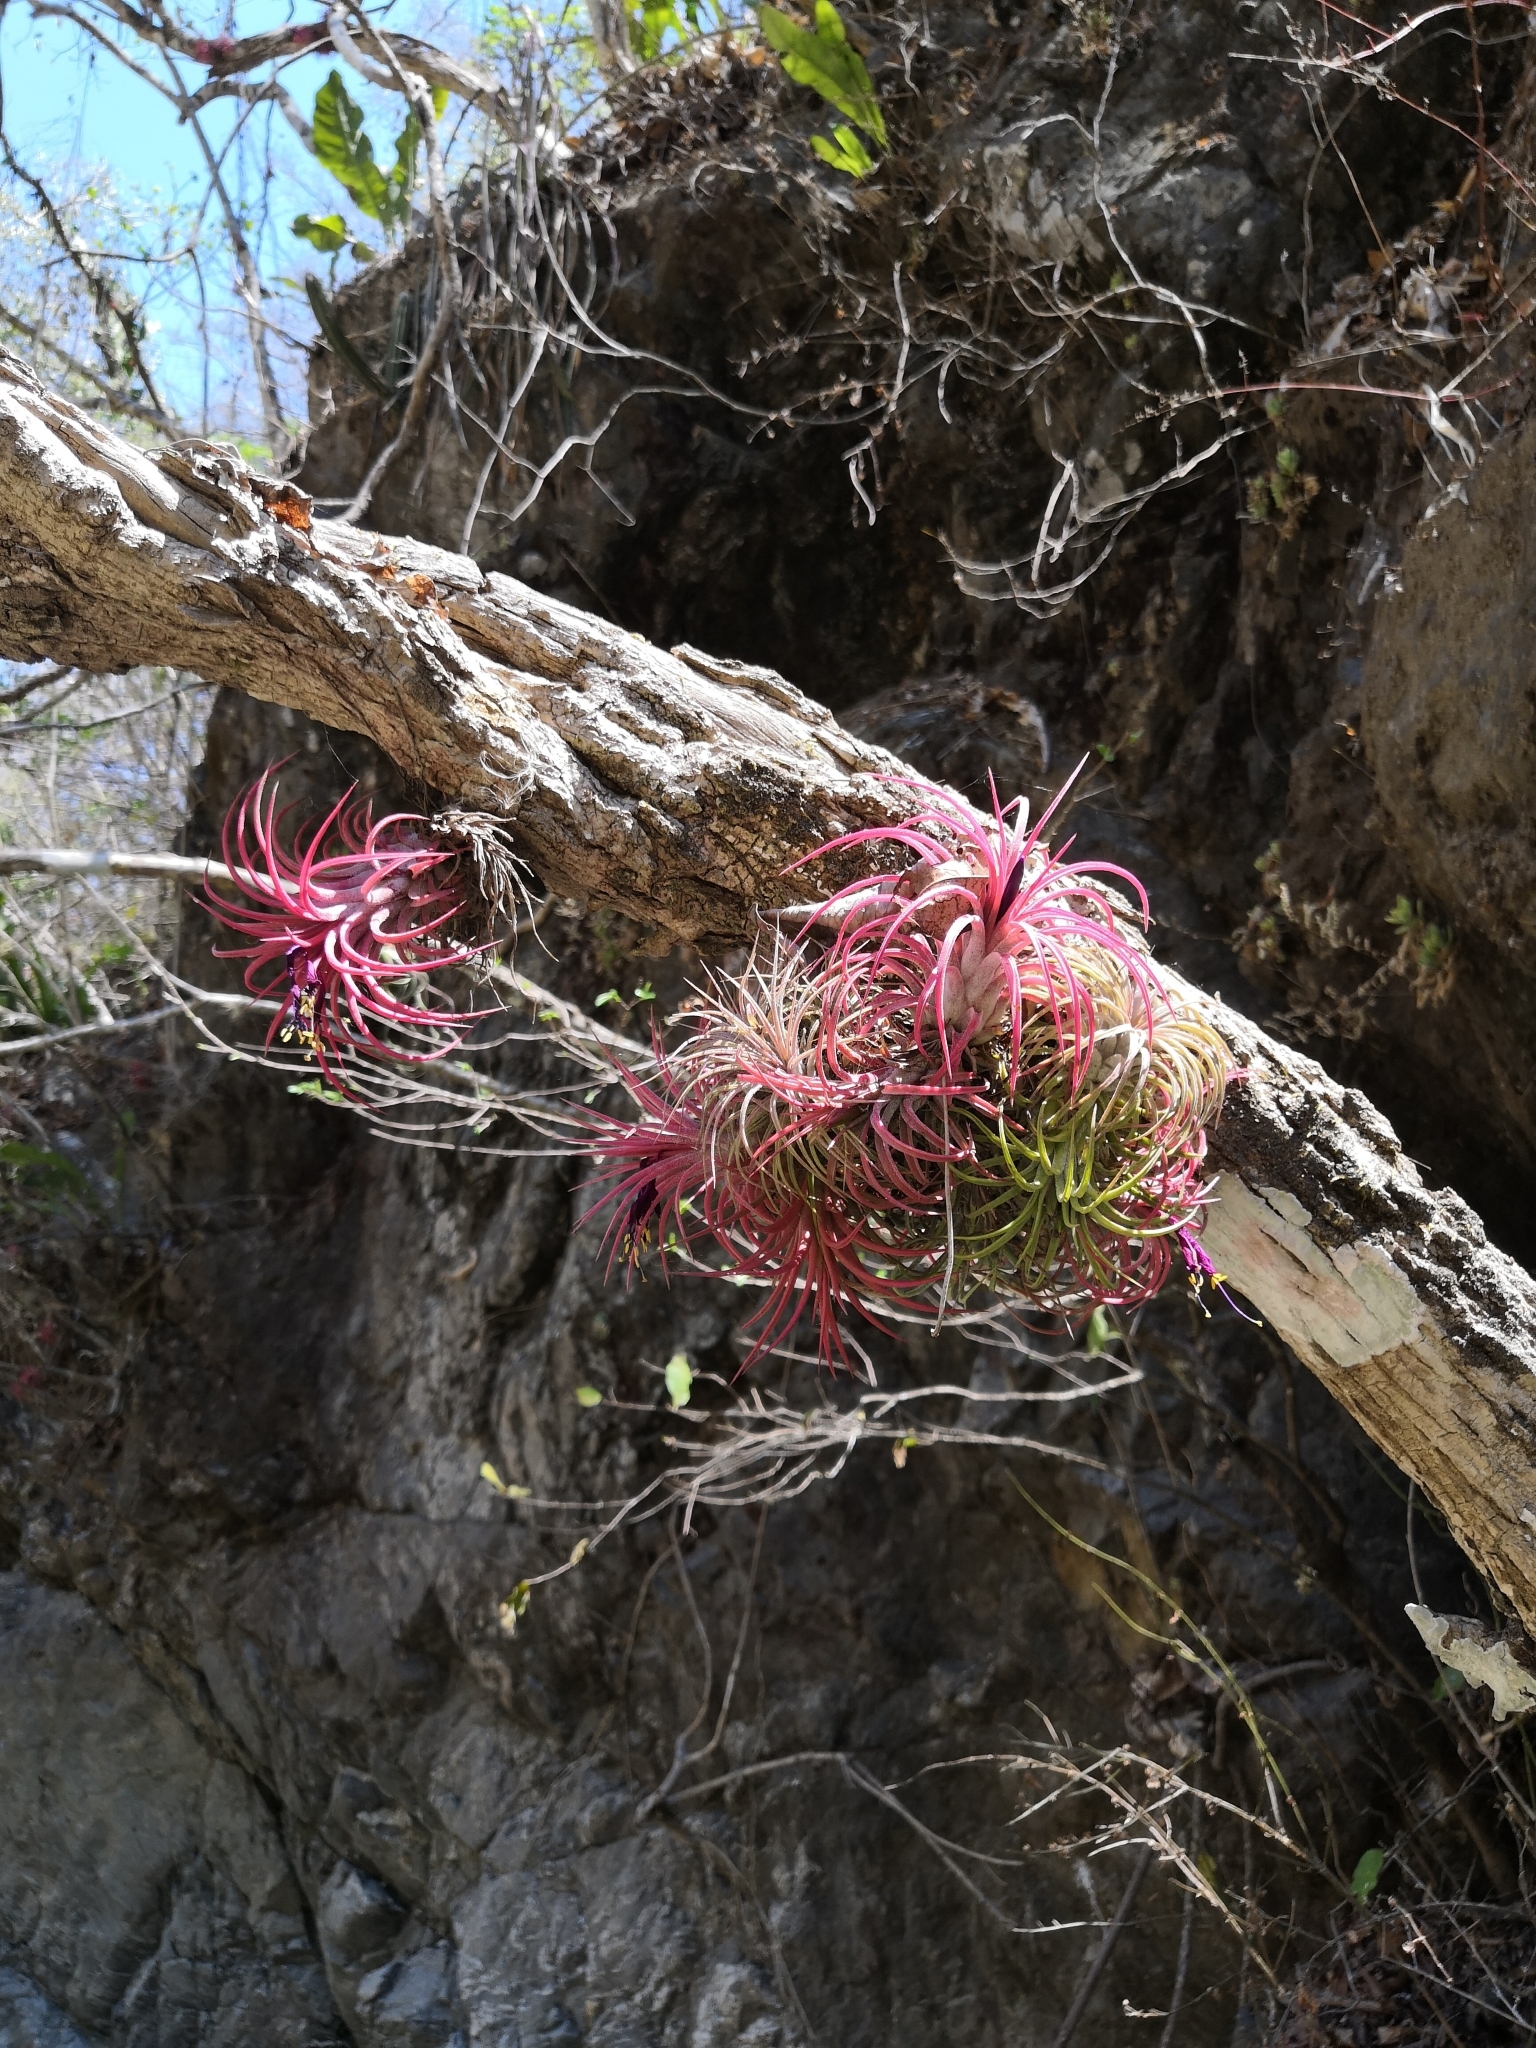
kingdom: Plantae
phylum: Tracheophyta
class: Liliopsida
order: Poales
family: Bromeliaceae
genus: Tillandsia
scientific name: Tillandsia ionantha
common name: Sky plant
